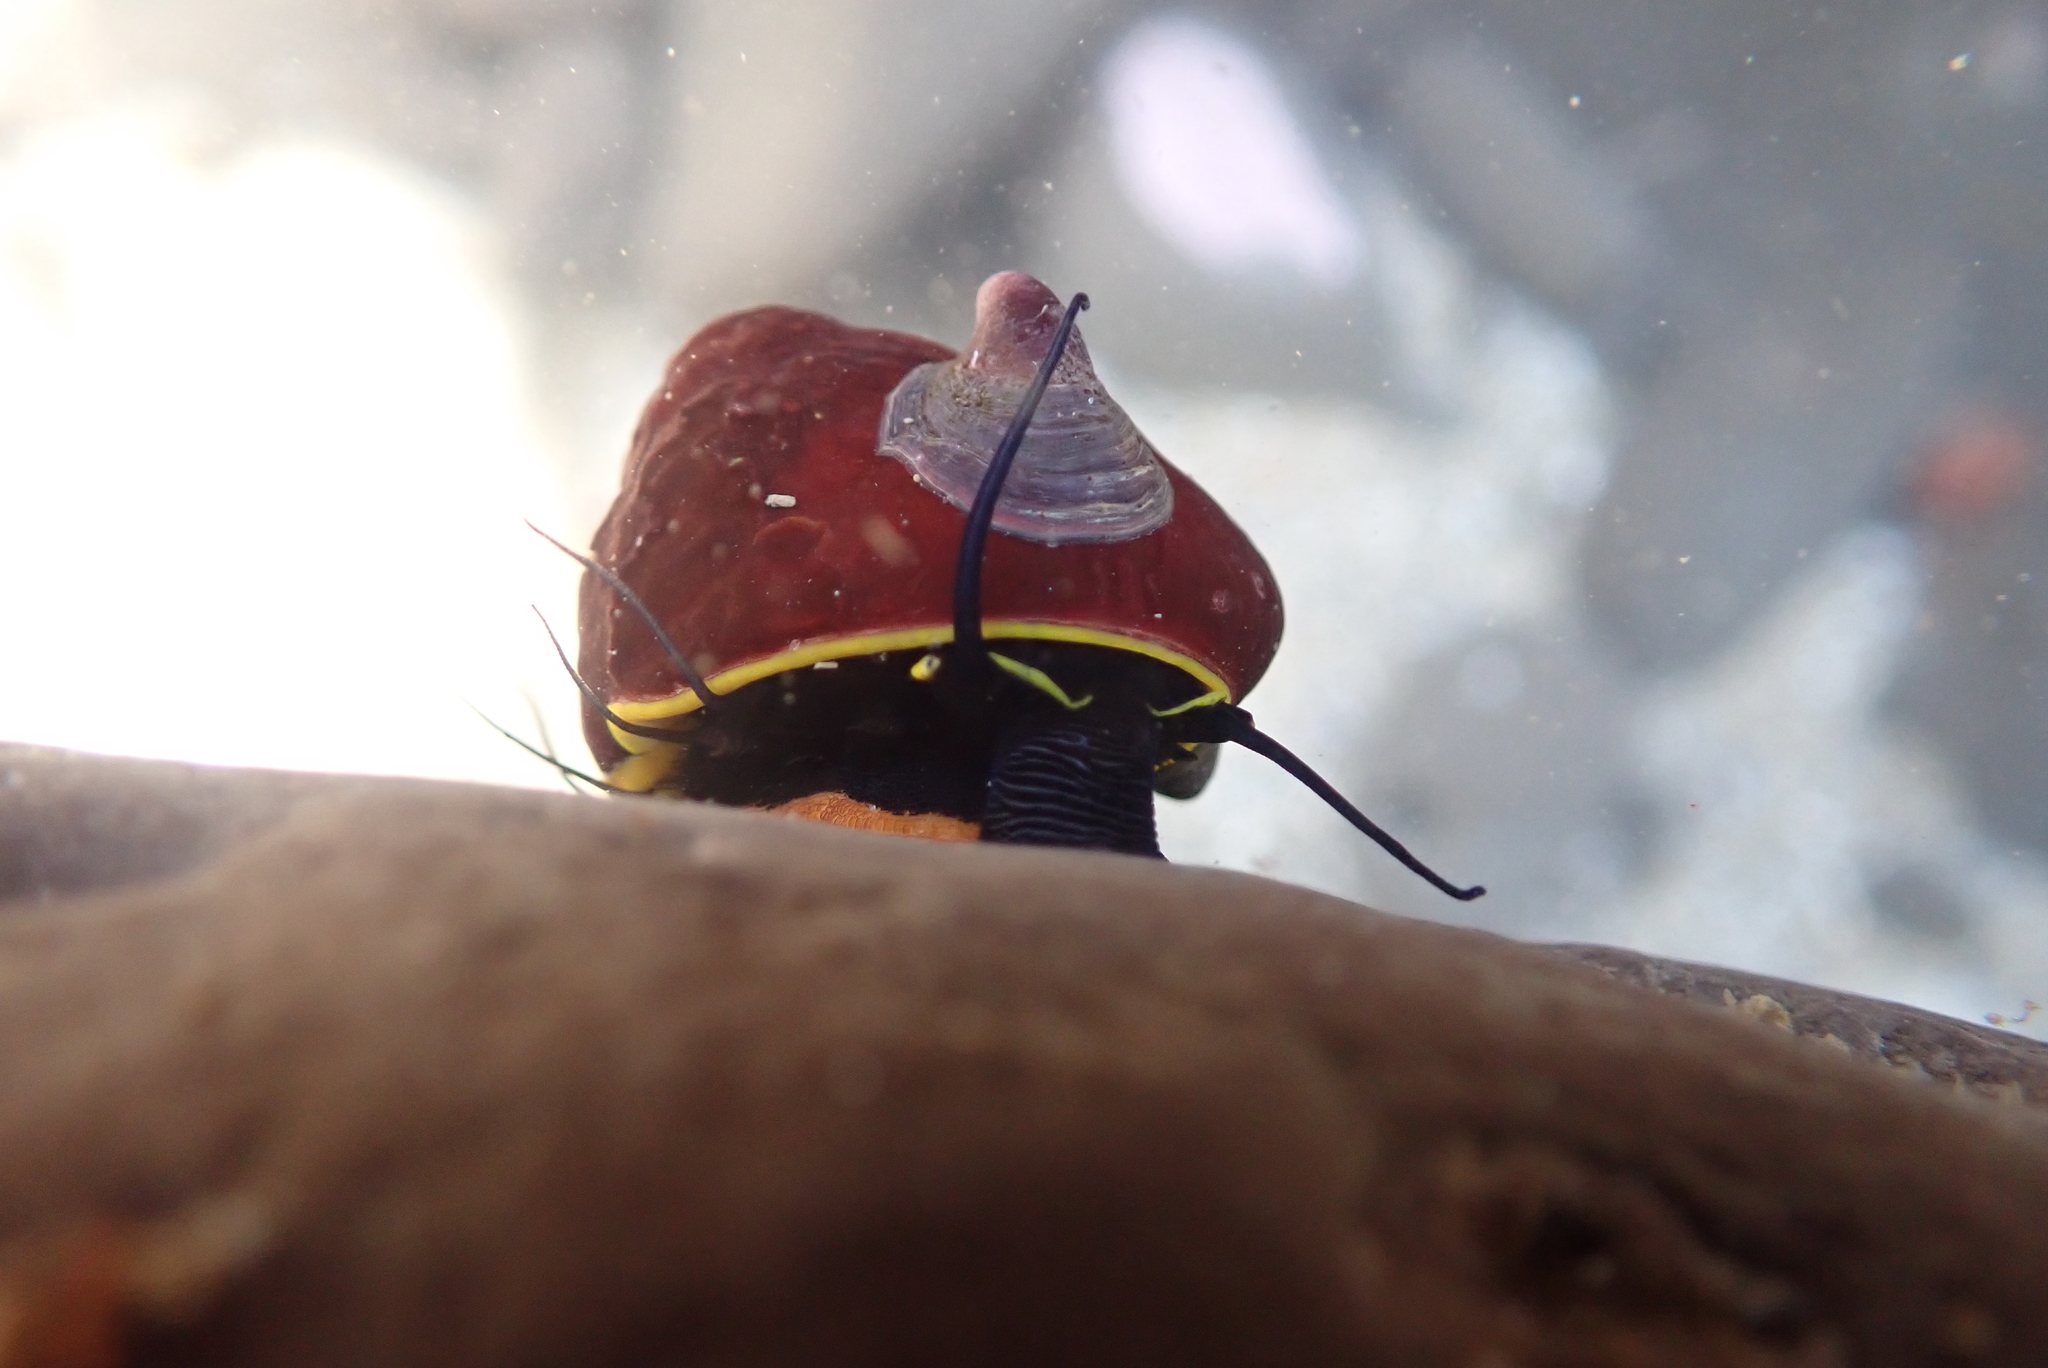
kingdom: Animalia
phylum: Mollusca
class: Gastropoda
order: Trochida
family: Tegulidae
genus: Tegula
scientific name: Tegula brunnea
